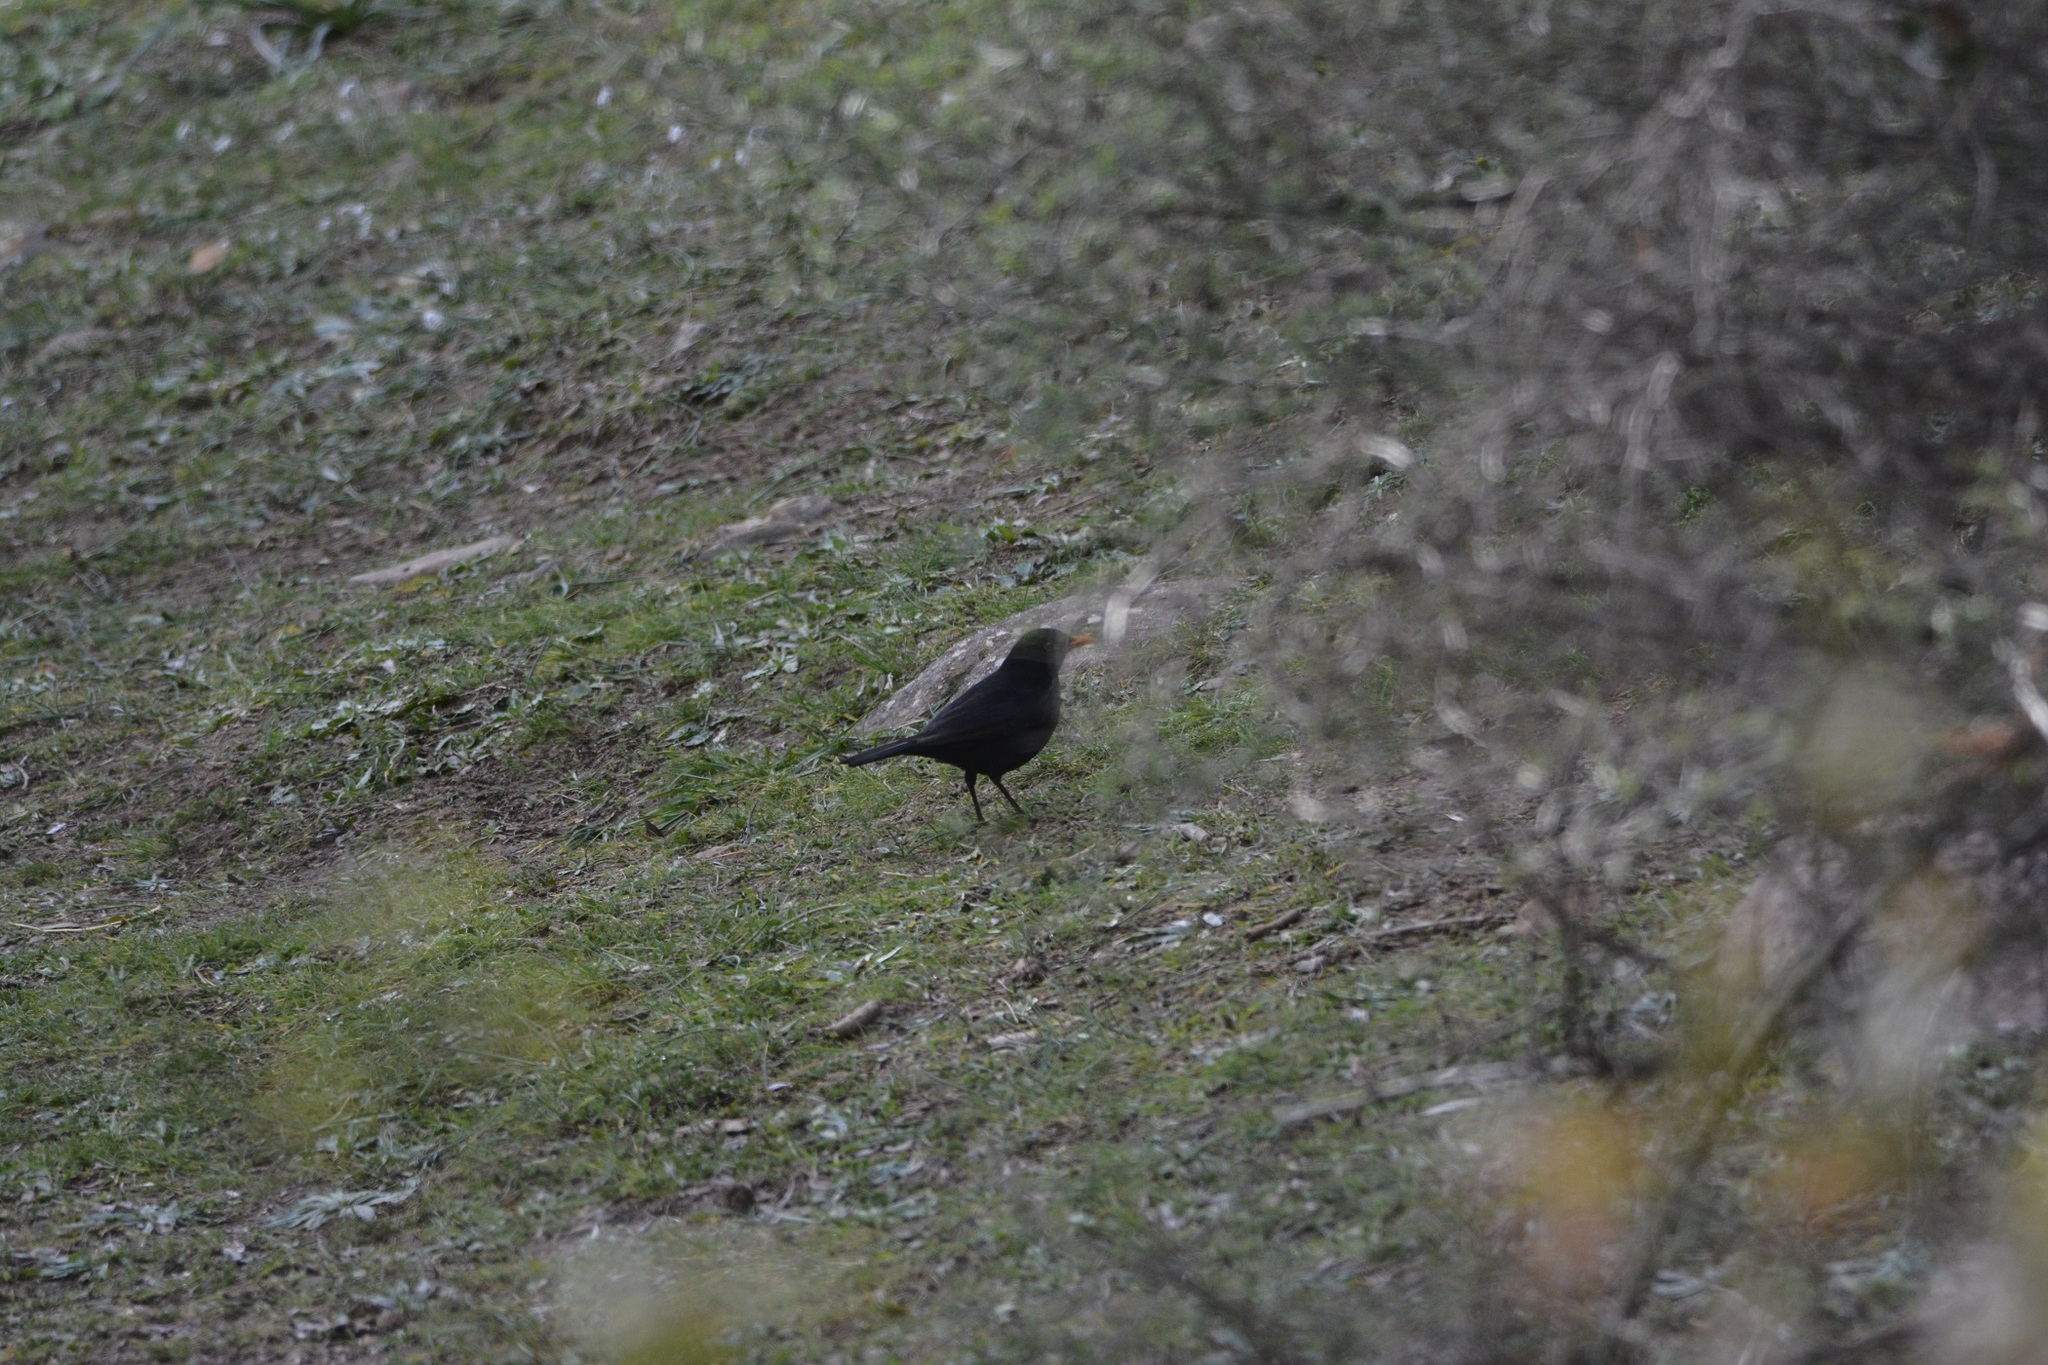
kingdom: Animalia
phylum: Chordata
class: Aves
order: Passeriformes
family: Turdidae
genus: Turdus
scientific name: Turdus merula
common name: Common blackbird
